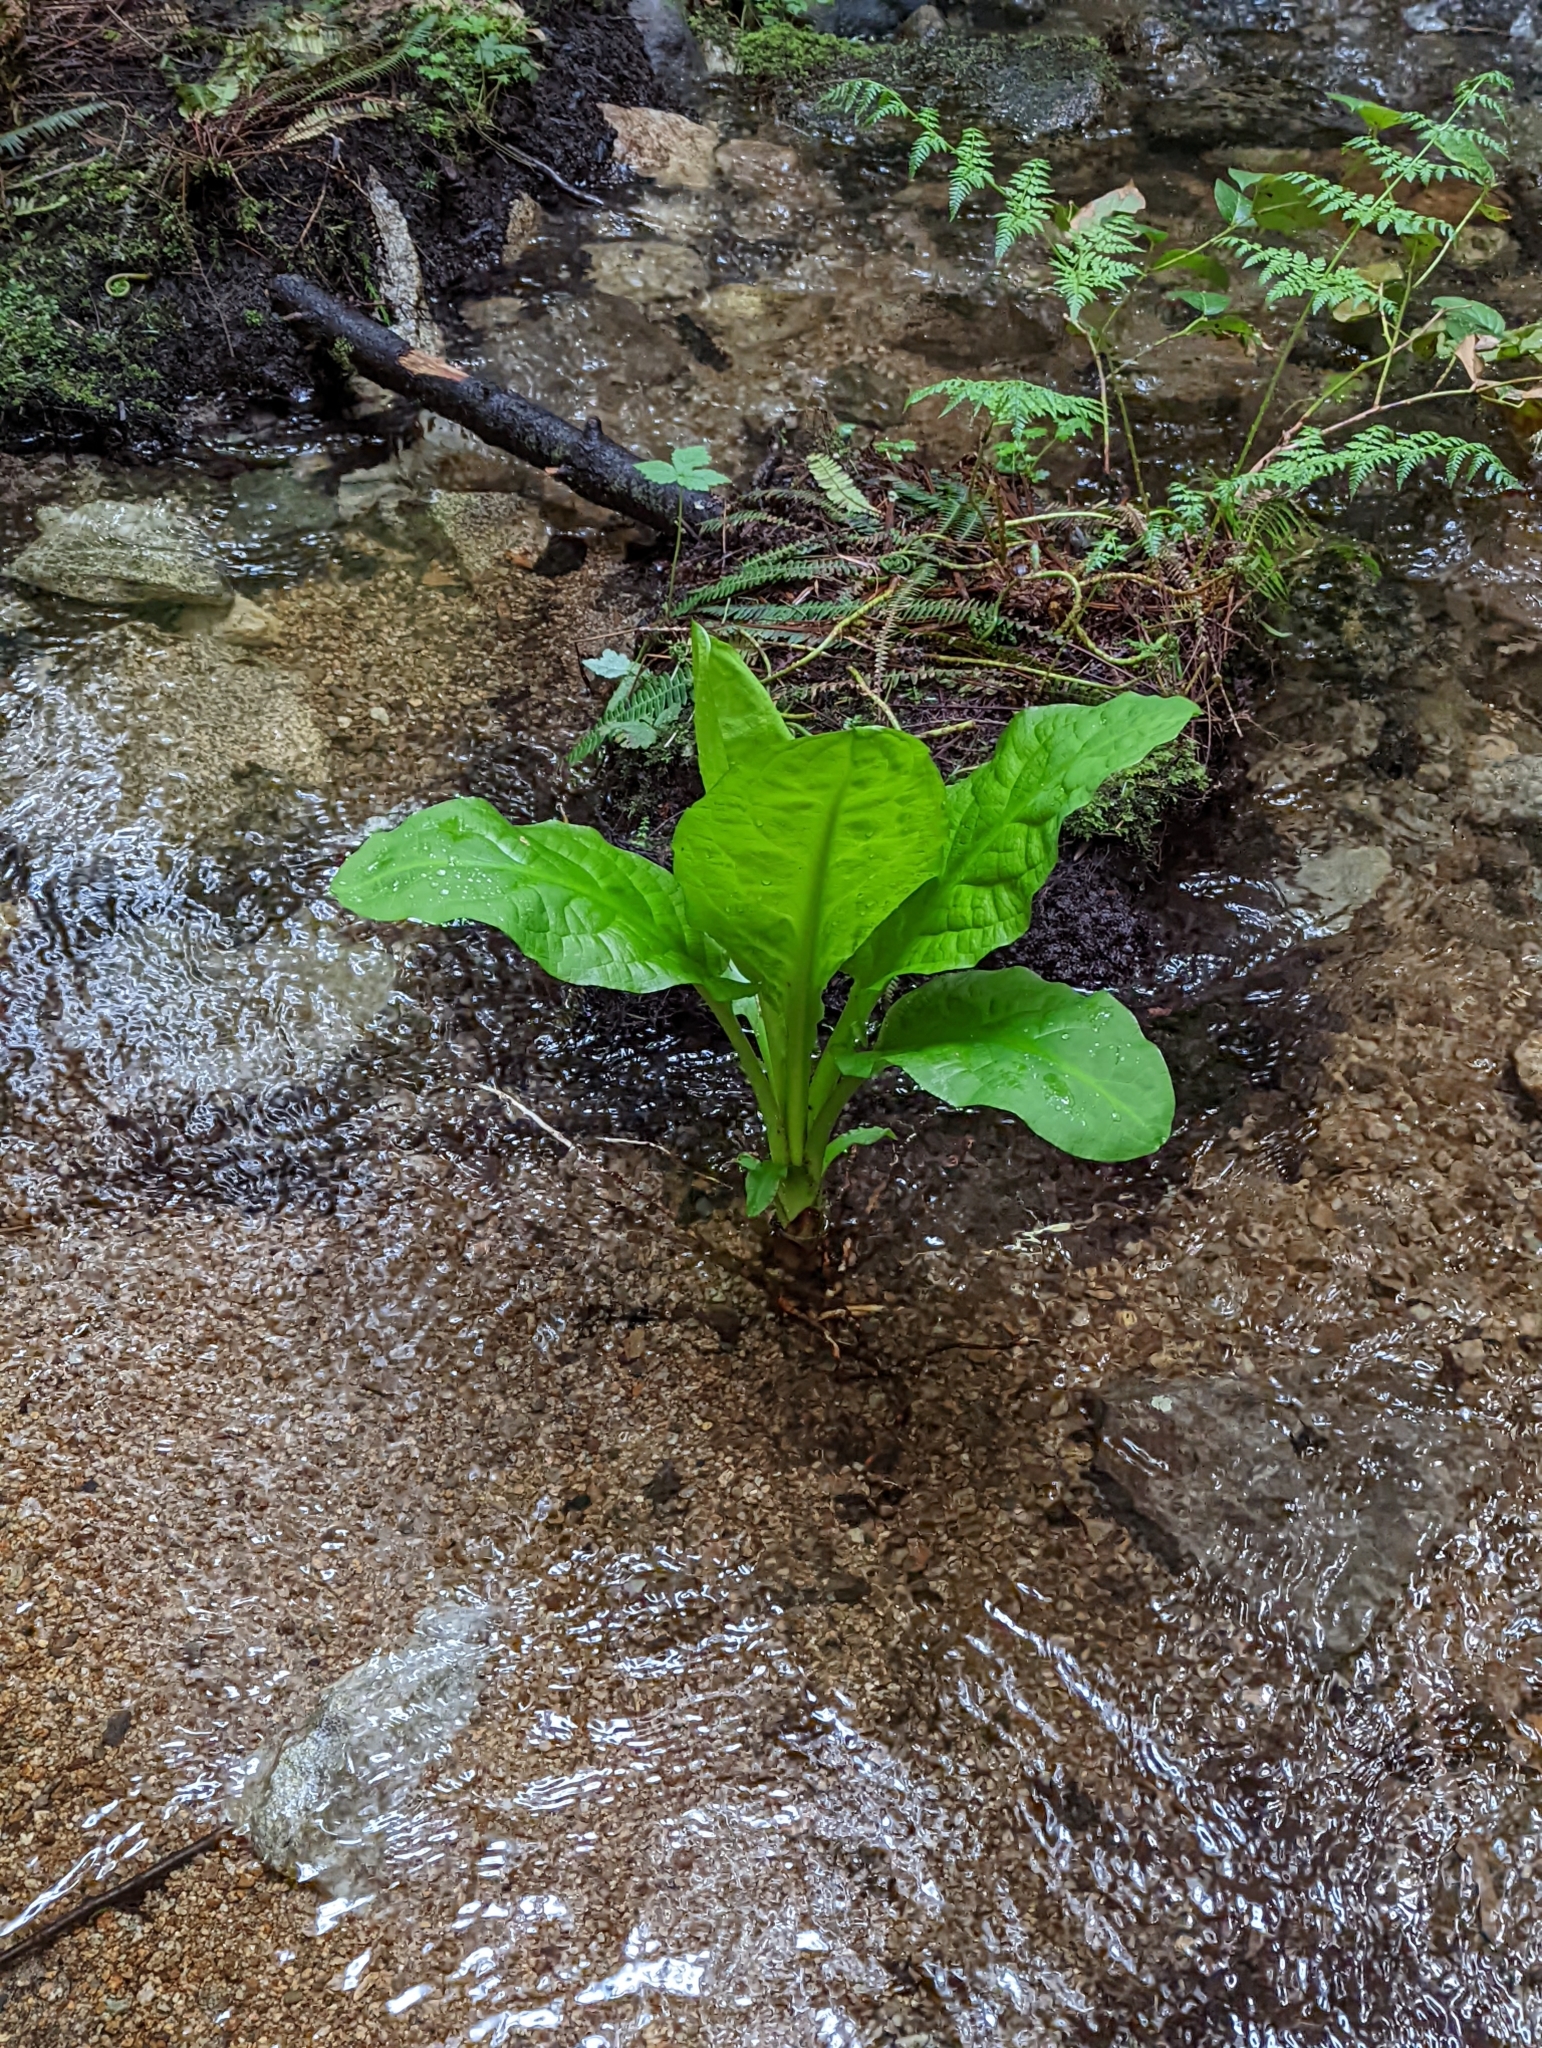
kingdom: Plantae
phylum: Tracheophyta
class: Liliopsida
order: Alismatales
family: Araceae
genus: Lysichiton
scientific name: Lysichiton americanus
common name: American skunk cabbage
